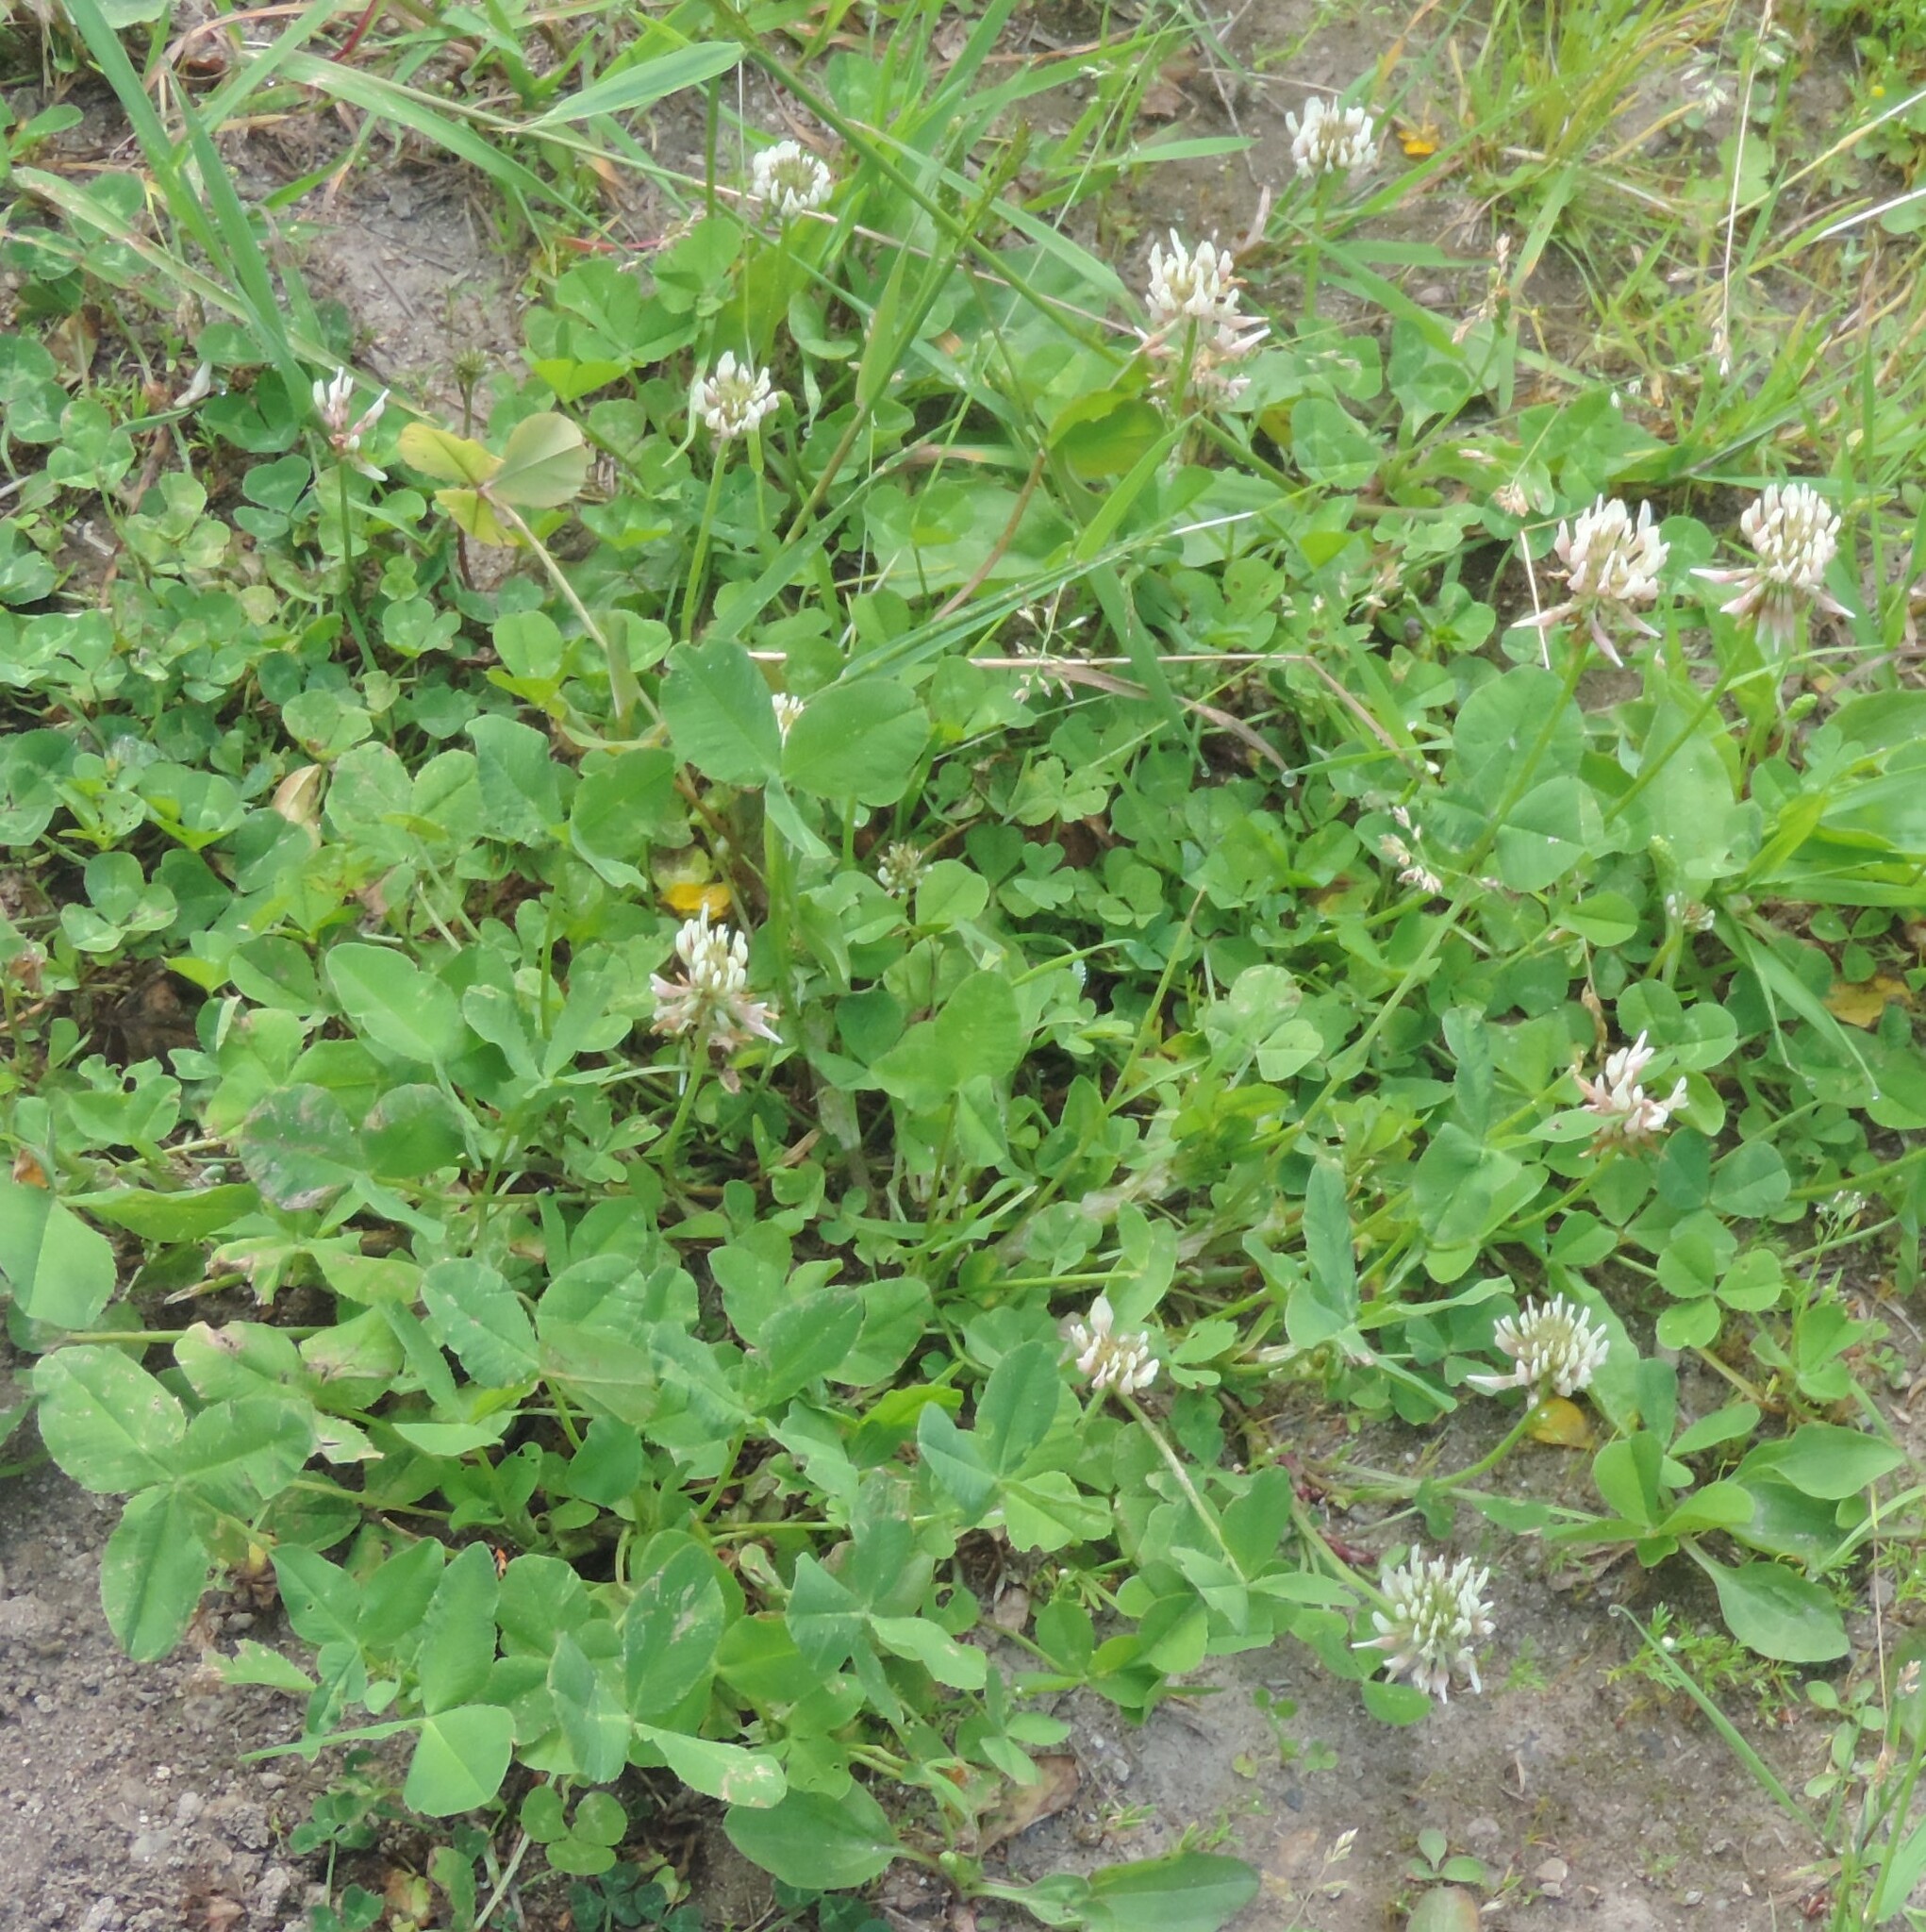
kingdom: Plantae
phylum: Tracheophyta
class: Magnoliopsida
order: Fabales
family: Fabaceae
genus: Trifolium
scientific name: Trifolium repens
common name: White clover
